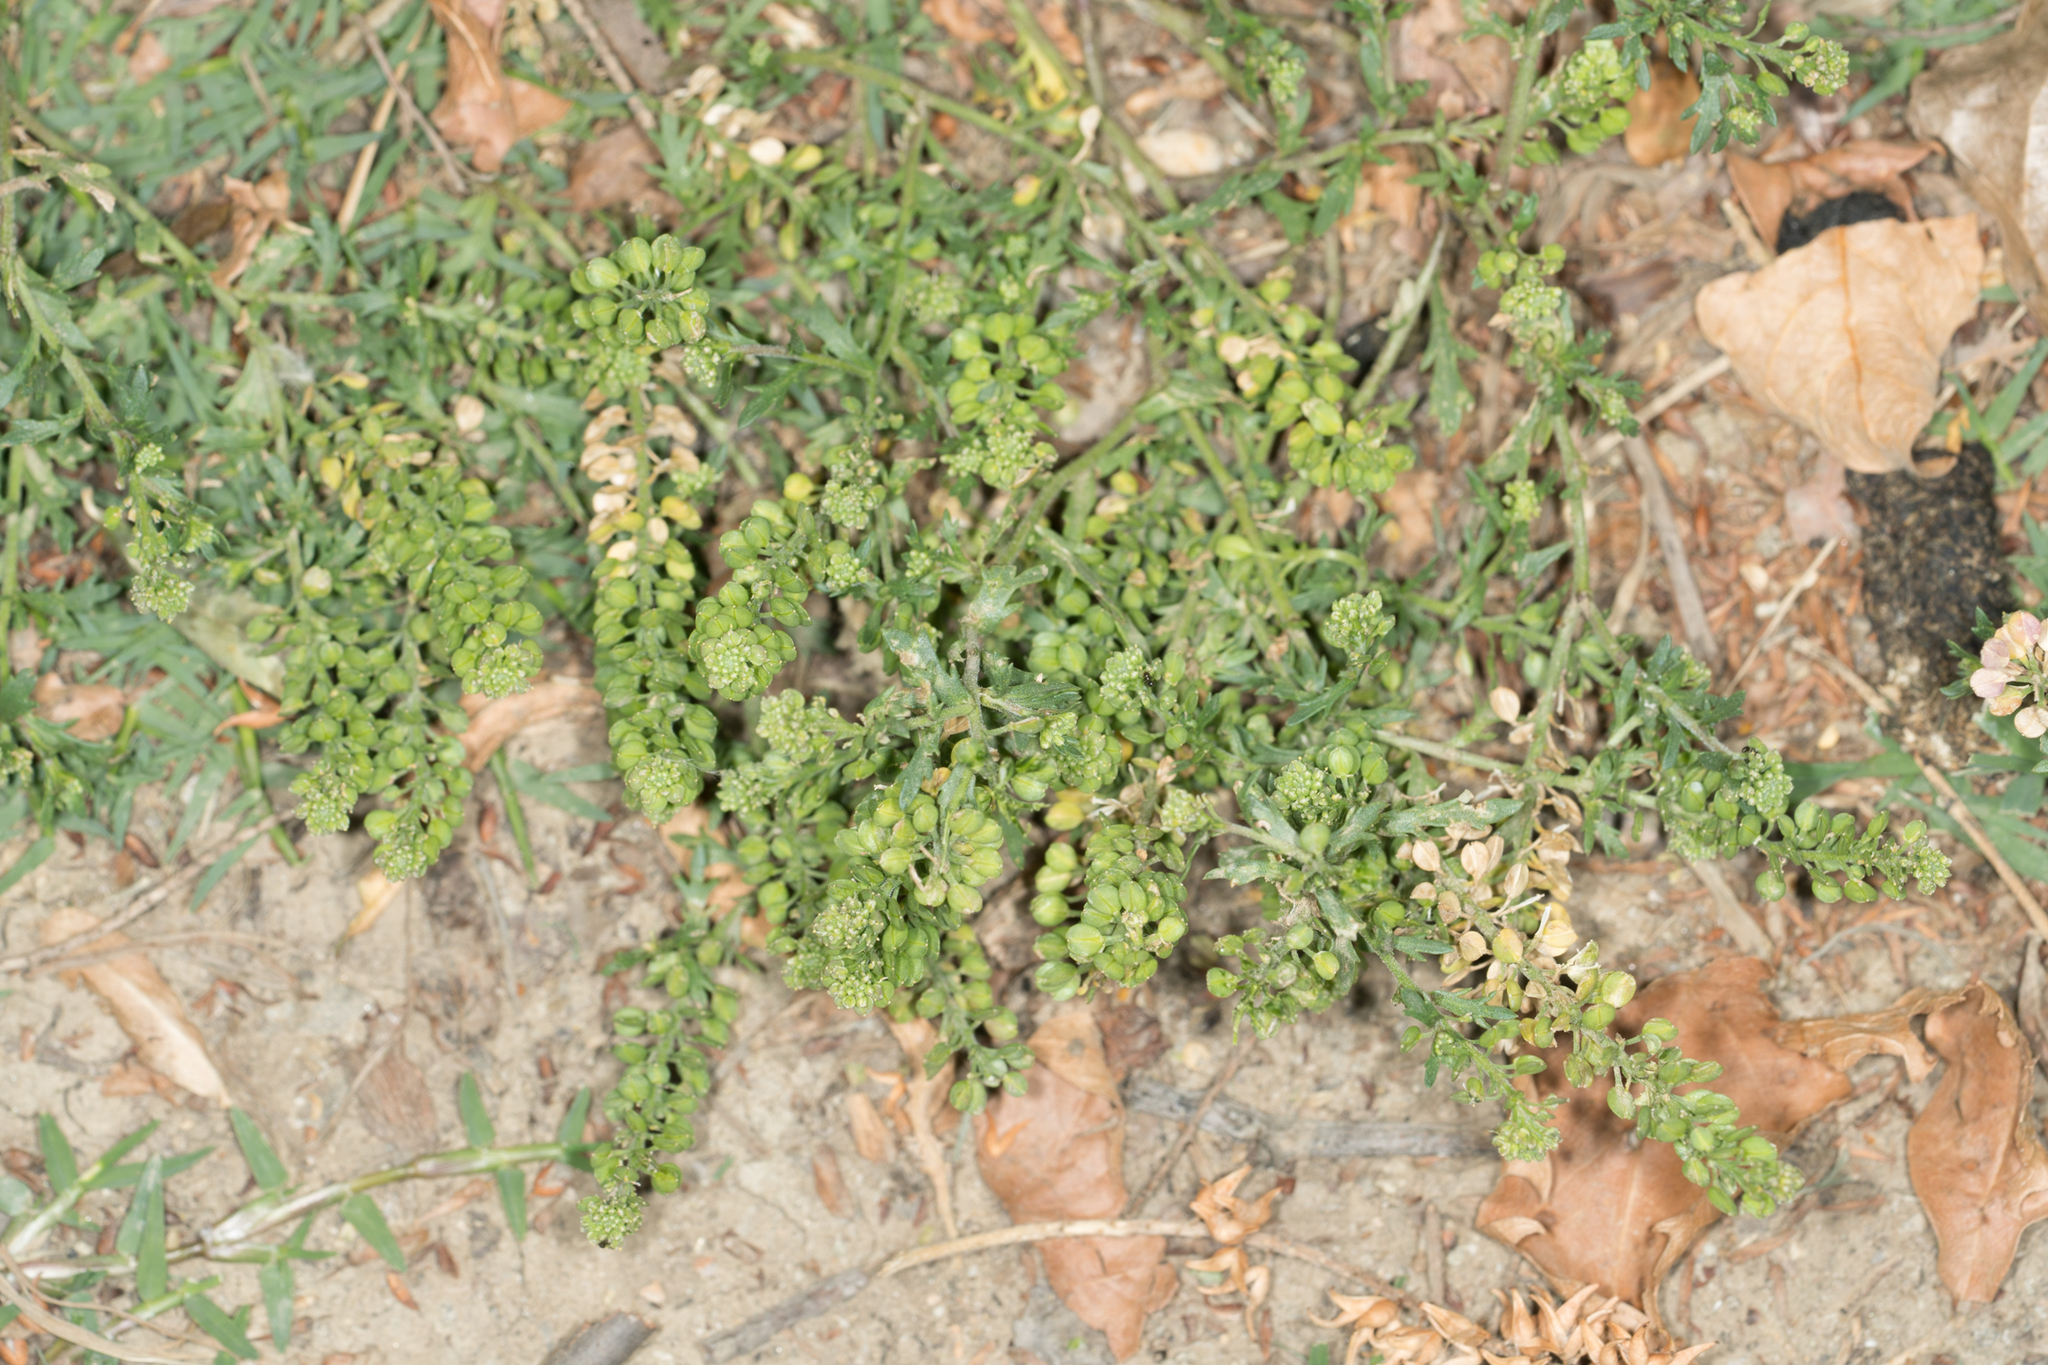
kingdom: Plantae
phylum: Tracheophyta
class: Magnoliopsida
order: Brassicales
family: Brassicaceae
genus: Lepidium
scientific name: Lepidium didymum
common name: Lesser swinecress
